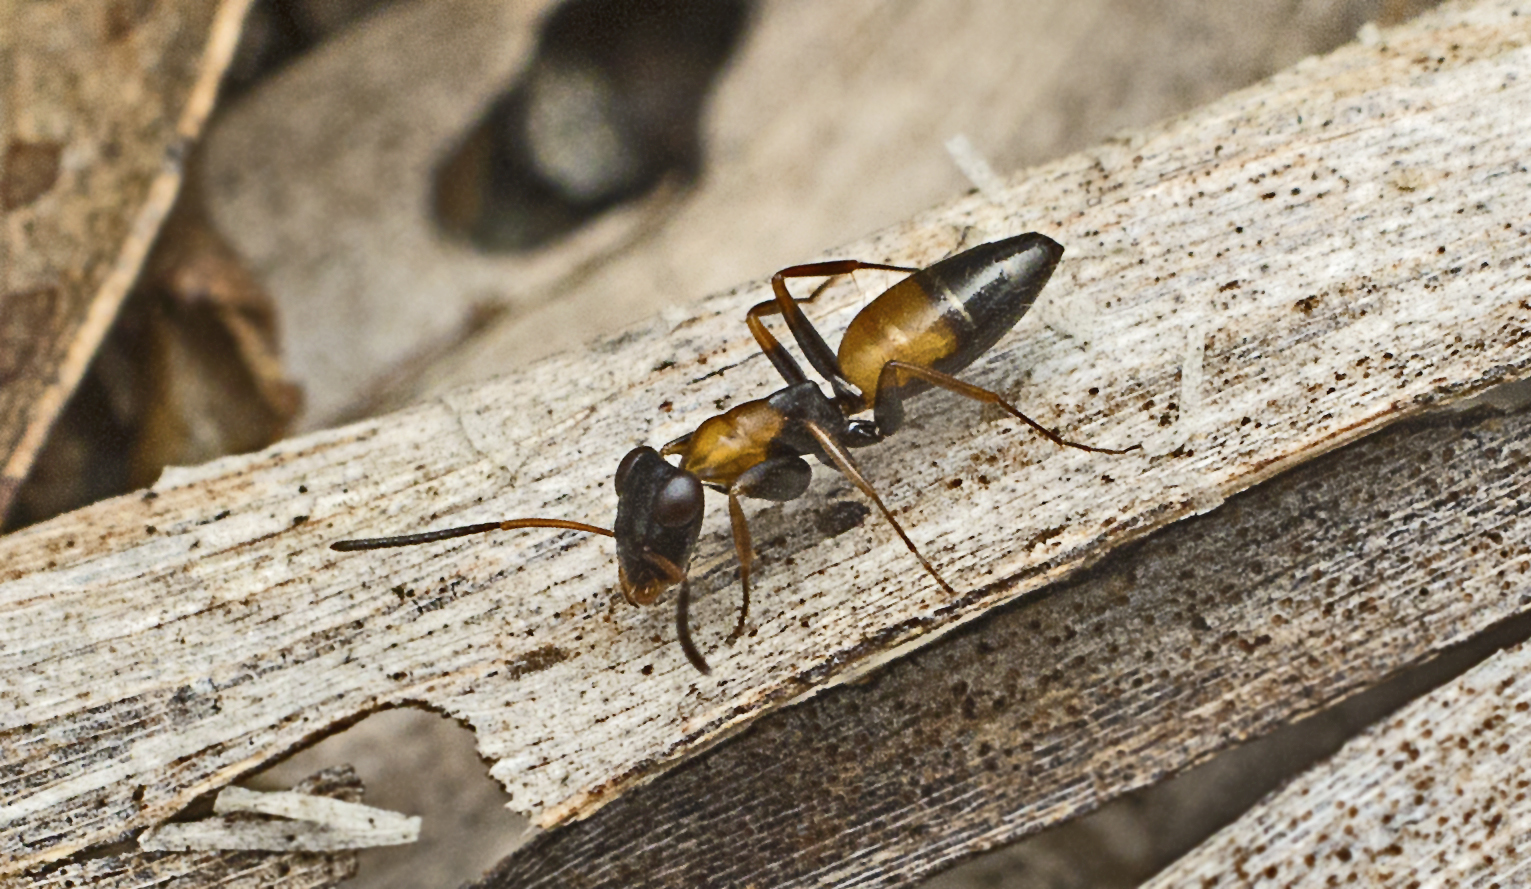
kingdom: Animalia
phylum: Arthropoda
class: Insecta
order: Hymenoptera
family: Formicidae
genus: Opisthopsis
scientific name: Opisthopsis pictus
